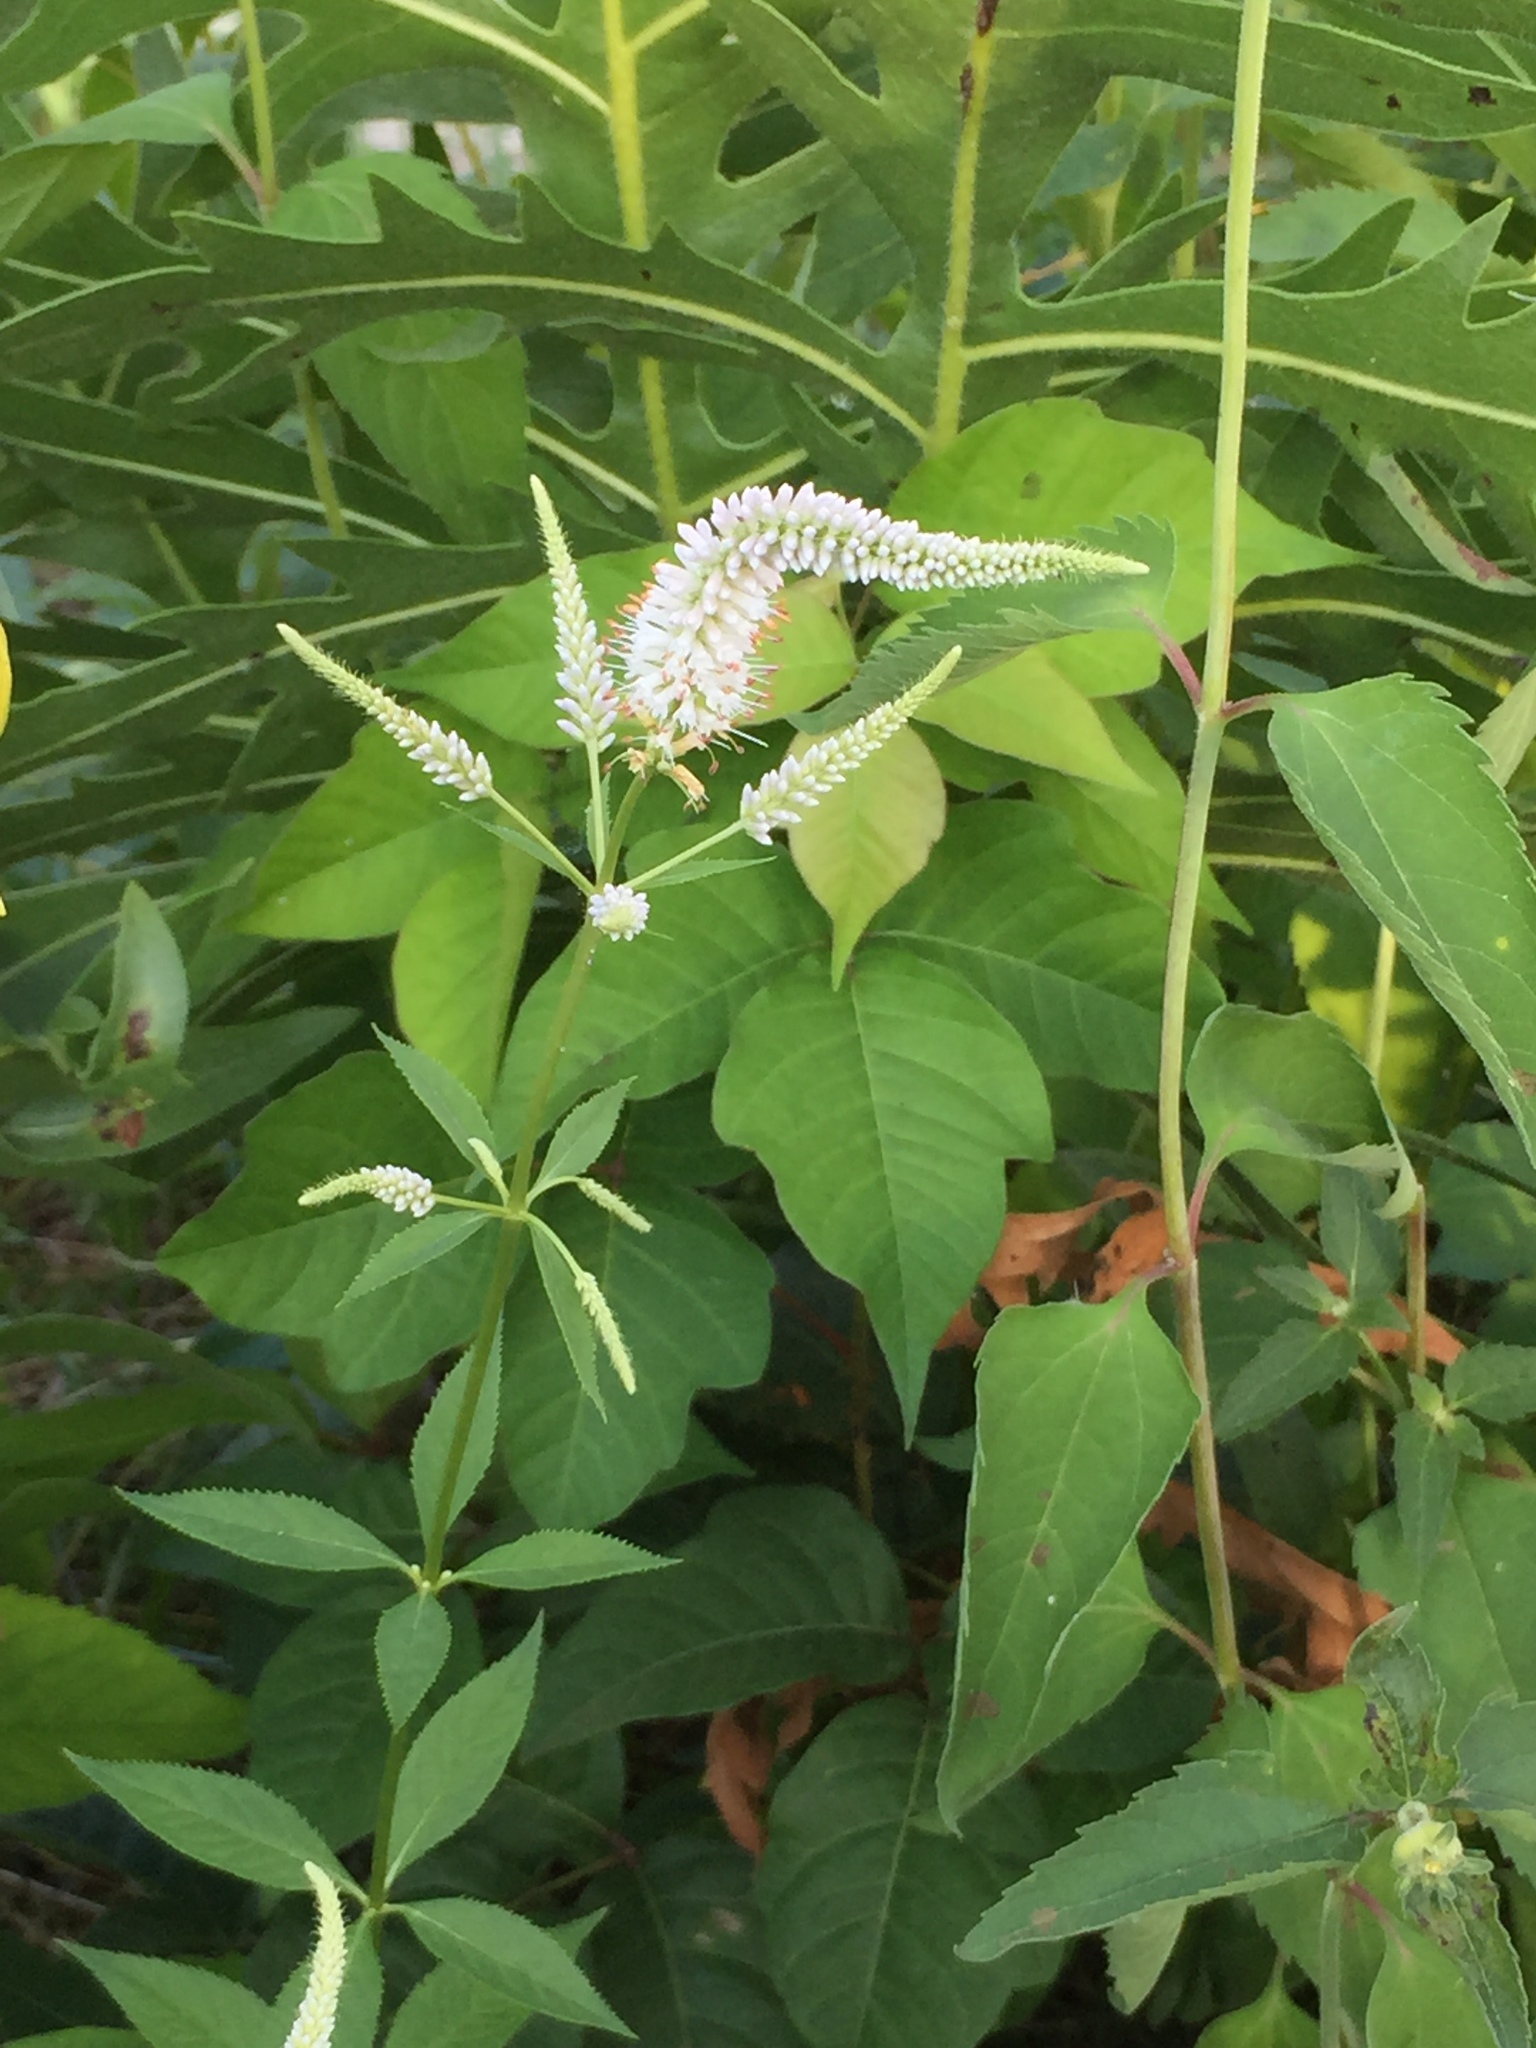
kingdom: Plantae
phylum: Tracheophyta
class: Magnoliopsida
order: Lamiales
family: Plantaginaceae
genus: Veronicastrum
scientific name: Veronicastrum virginicum
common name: Blackroot
